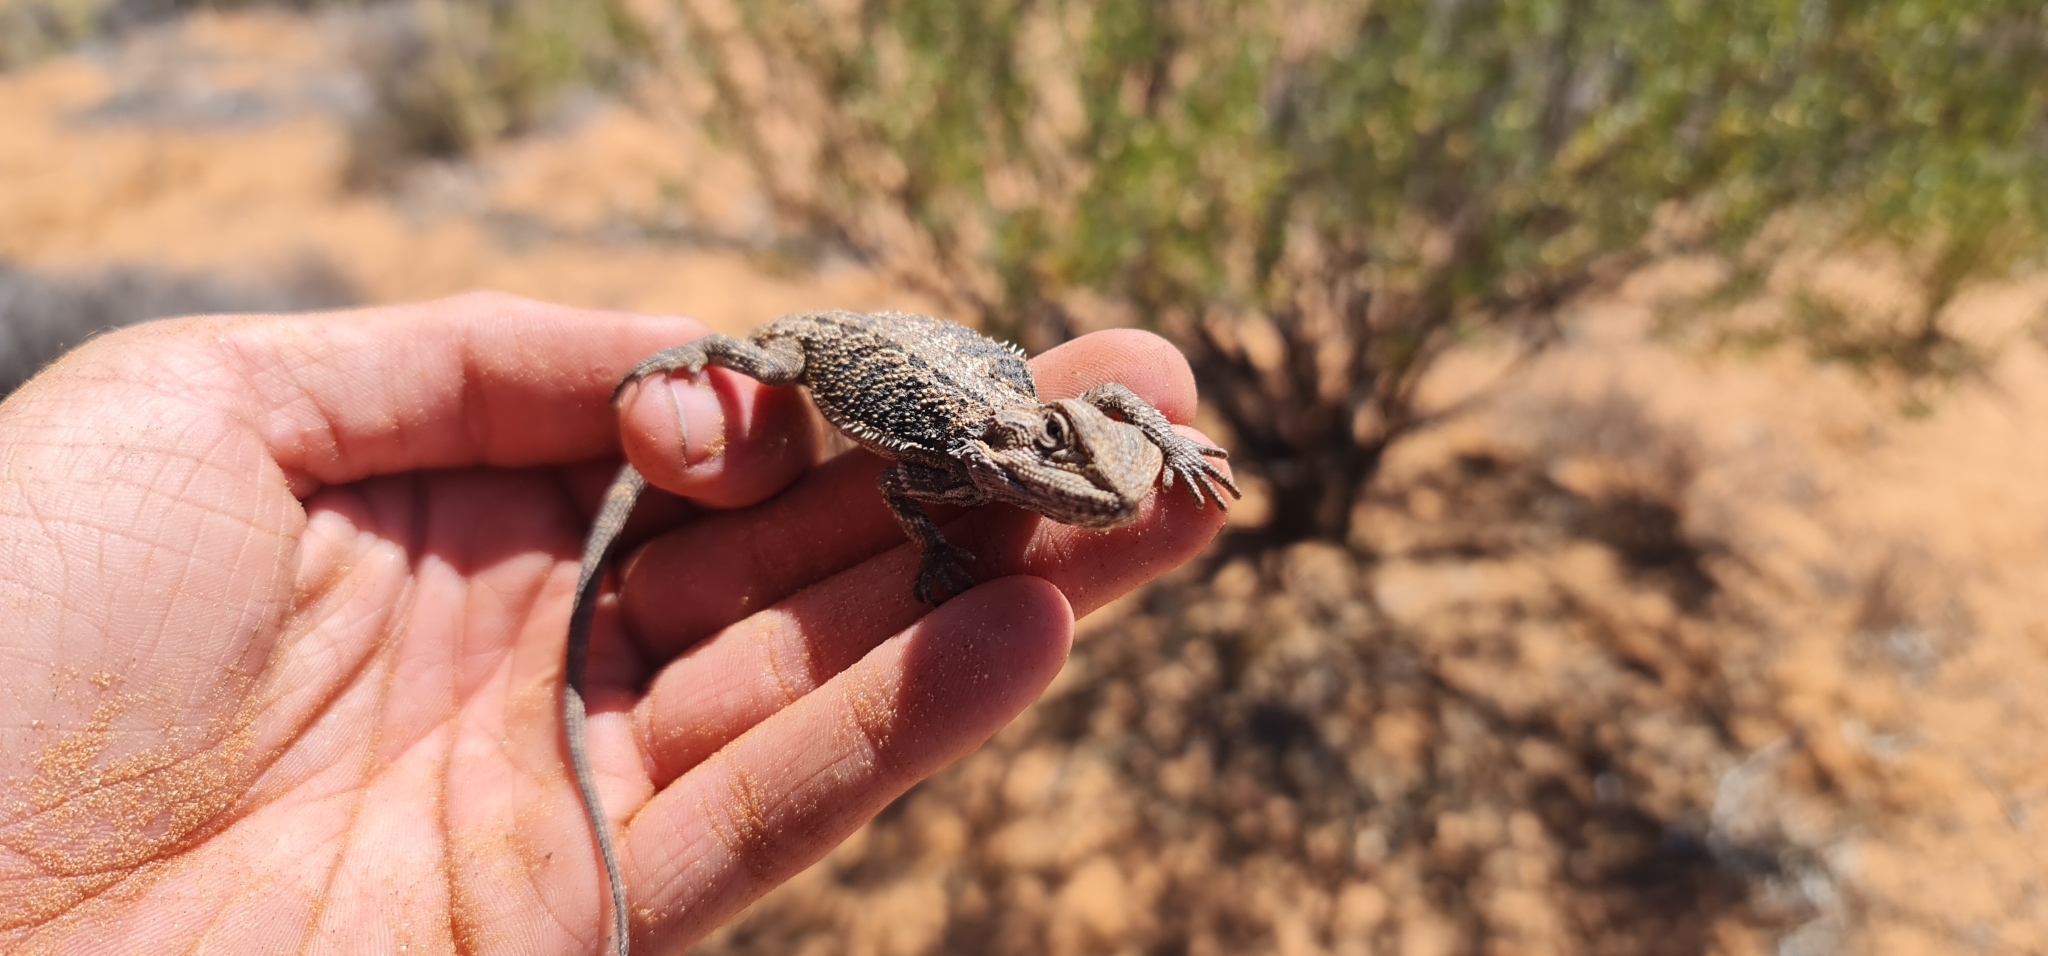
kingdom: Animalia
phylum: Chordata
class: Squamata
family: Agamidae
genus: Pogona
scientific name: Pogona vitticeps
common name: Central bearded dragon
